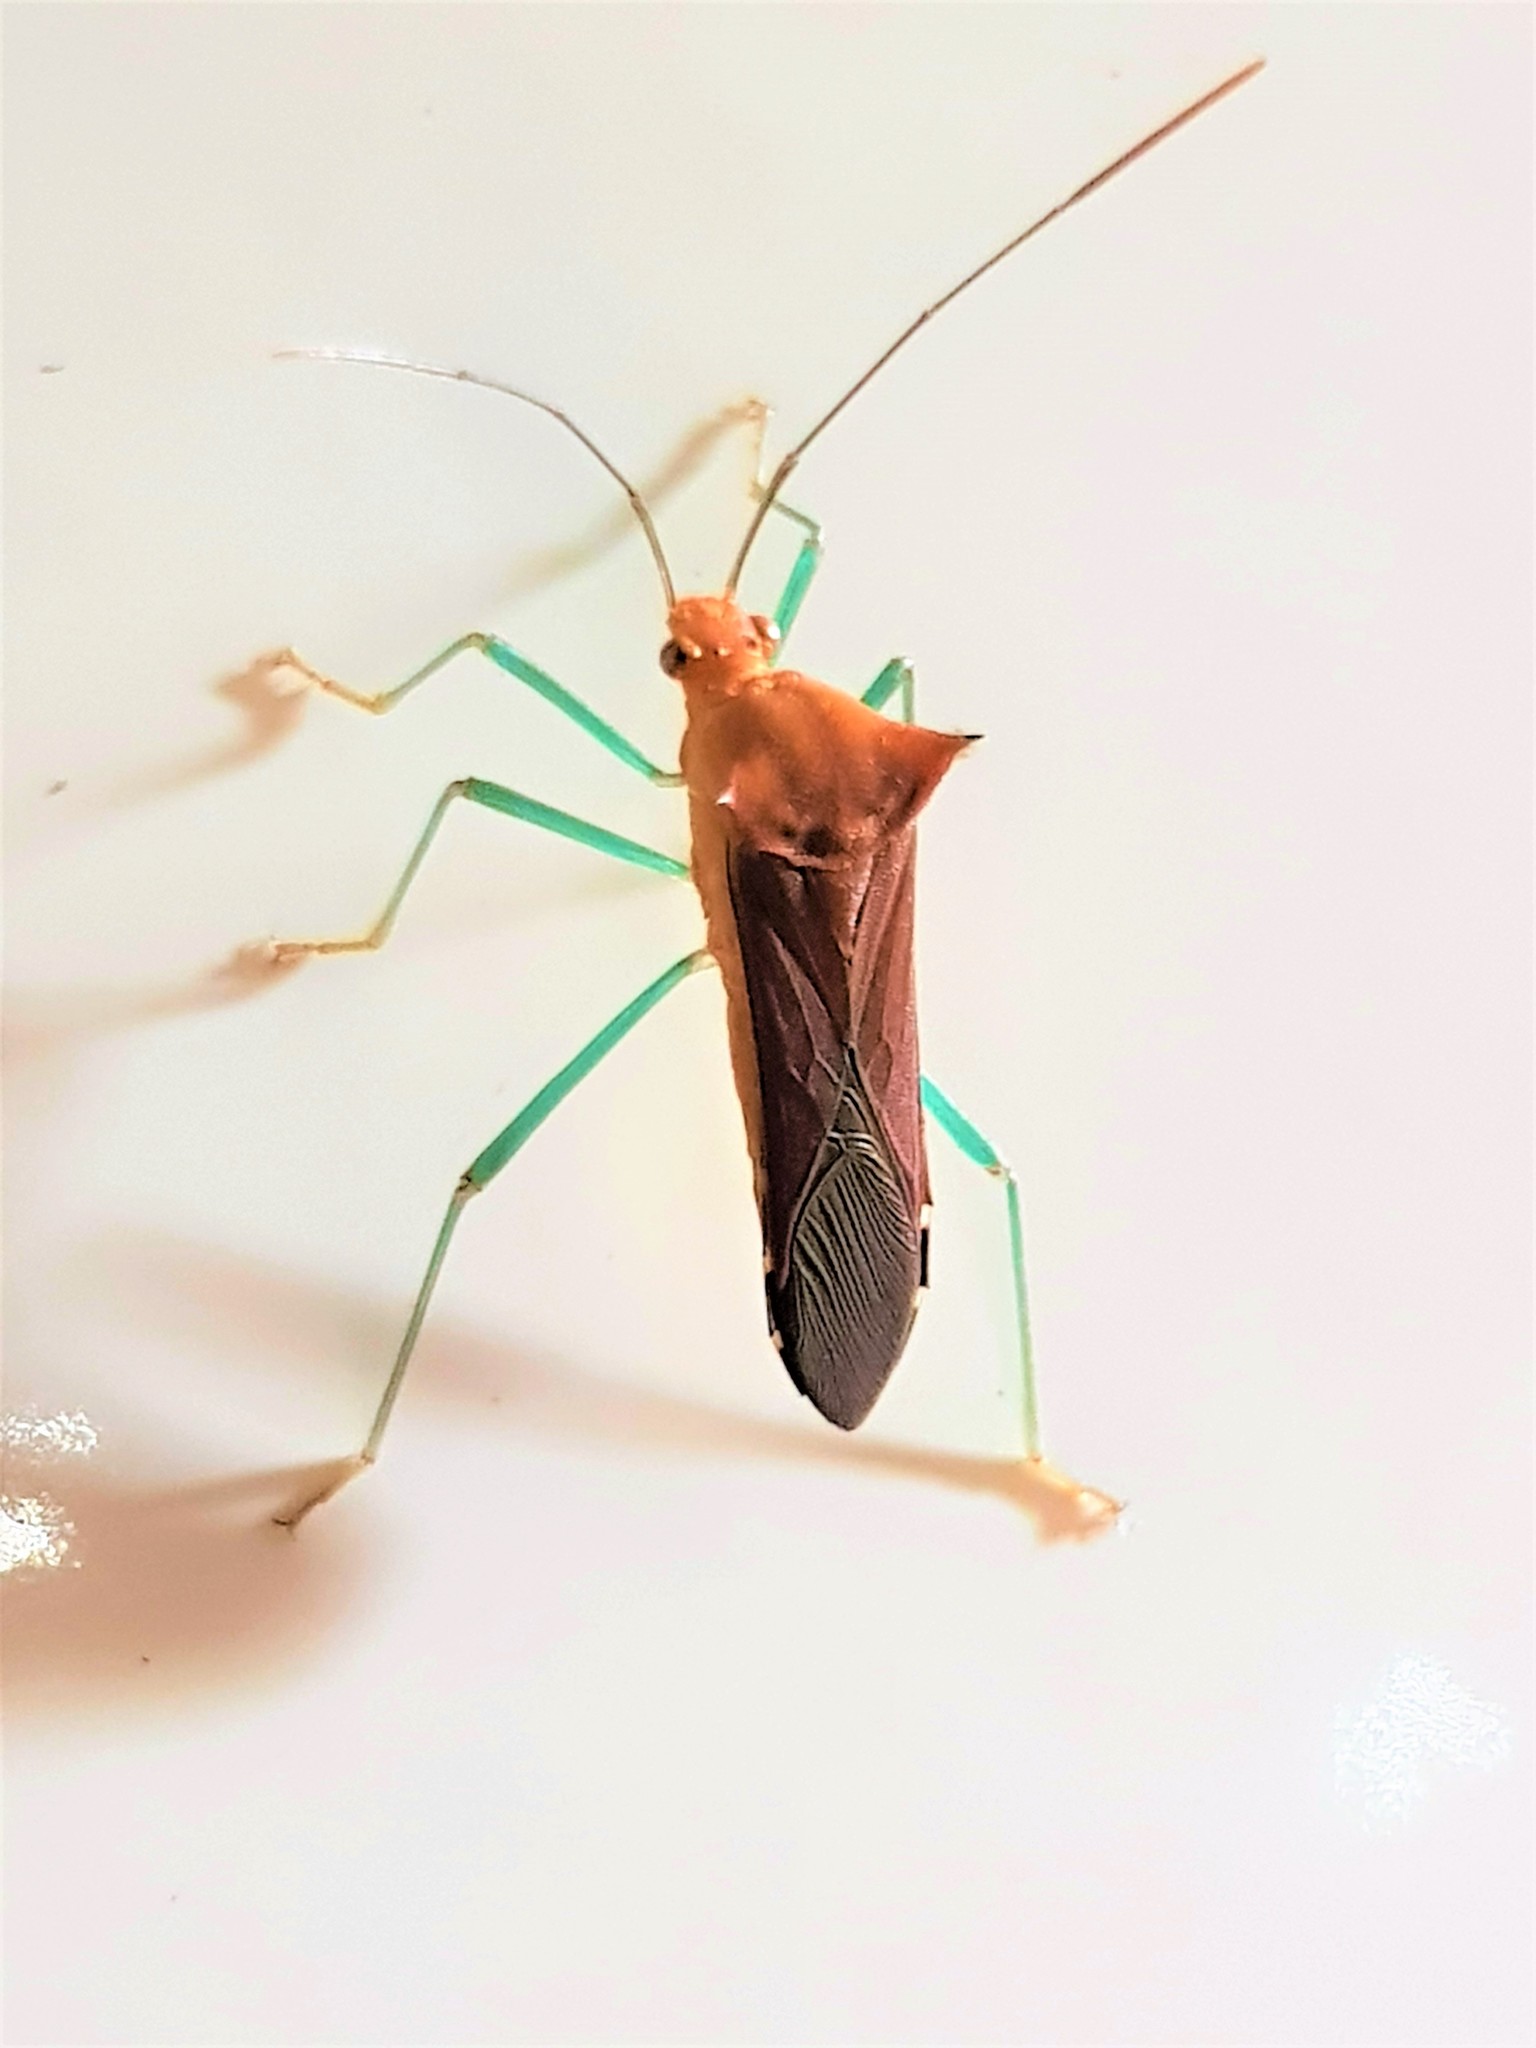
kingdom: Animalia
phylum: Arthropoda
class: Insecta
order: Hemiptera
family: Coreidae
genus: Daphnasa
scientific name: Daphnasa mucronata
